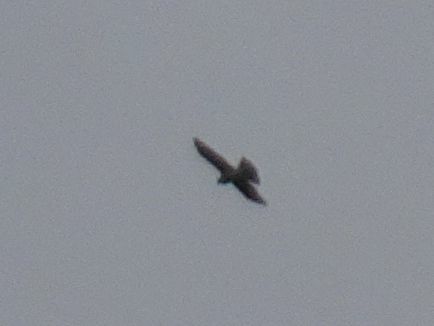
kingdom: Animalia
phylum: Chordata
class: Aves
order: Accipitriformes
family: Accipitridae
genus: Accipiter
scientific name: Accipiter nisus
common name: Eurasian sparrowhawk
